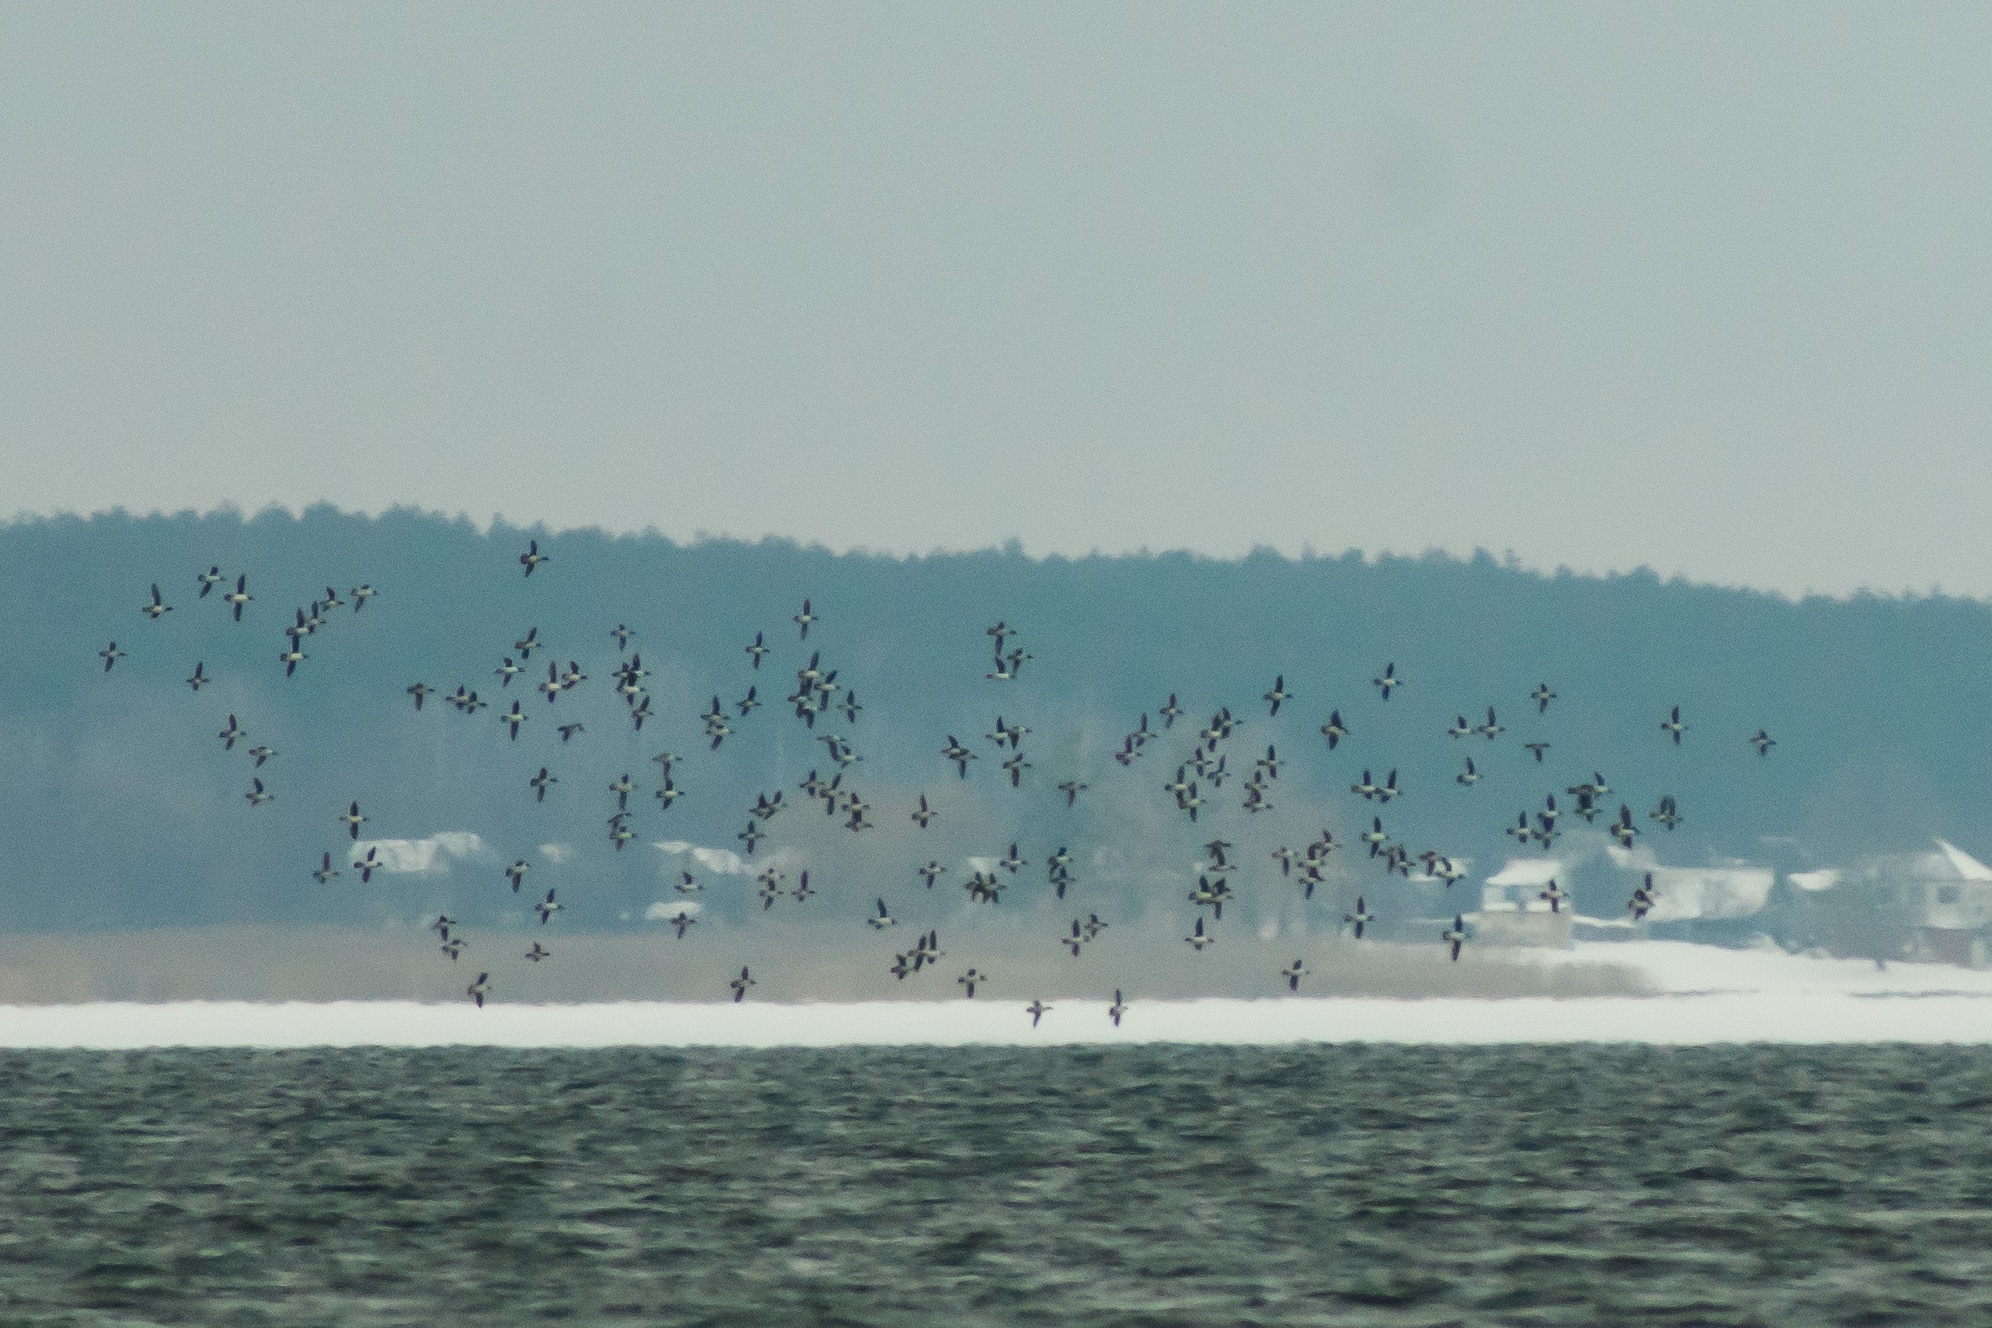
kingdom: Animalia
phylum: Chordata
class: Aves
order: Anseriformes
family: Anatidae
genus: Bucephala
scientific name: Bucephala clangula
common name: Common goldeneye
